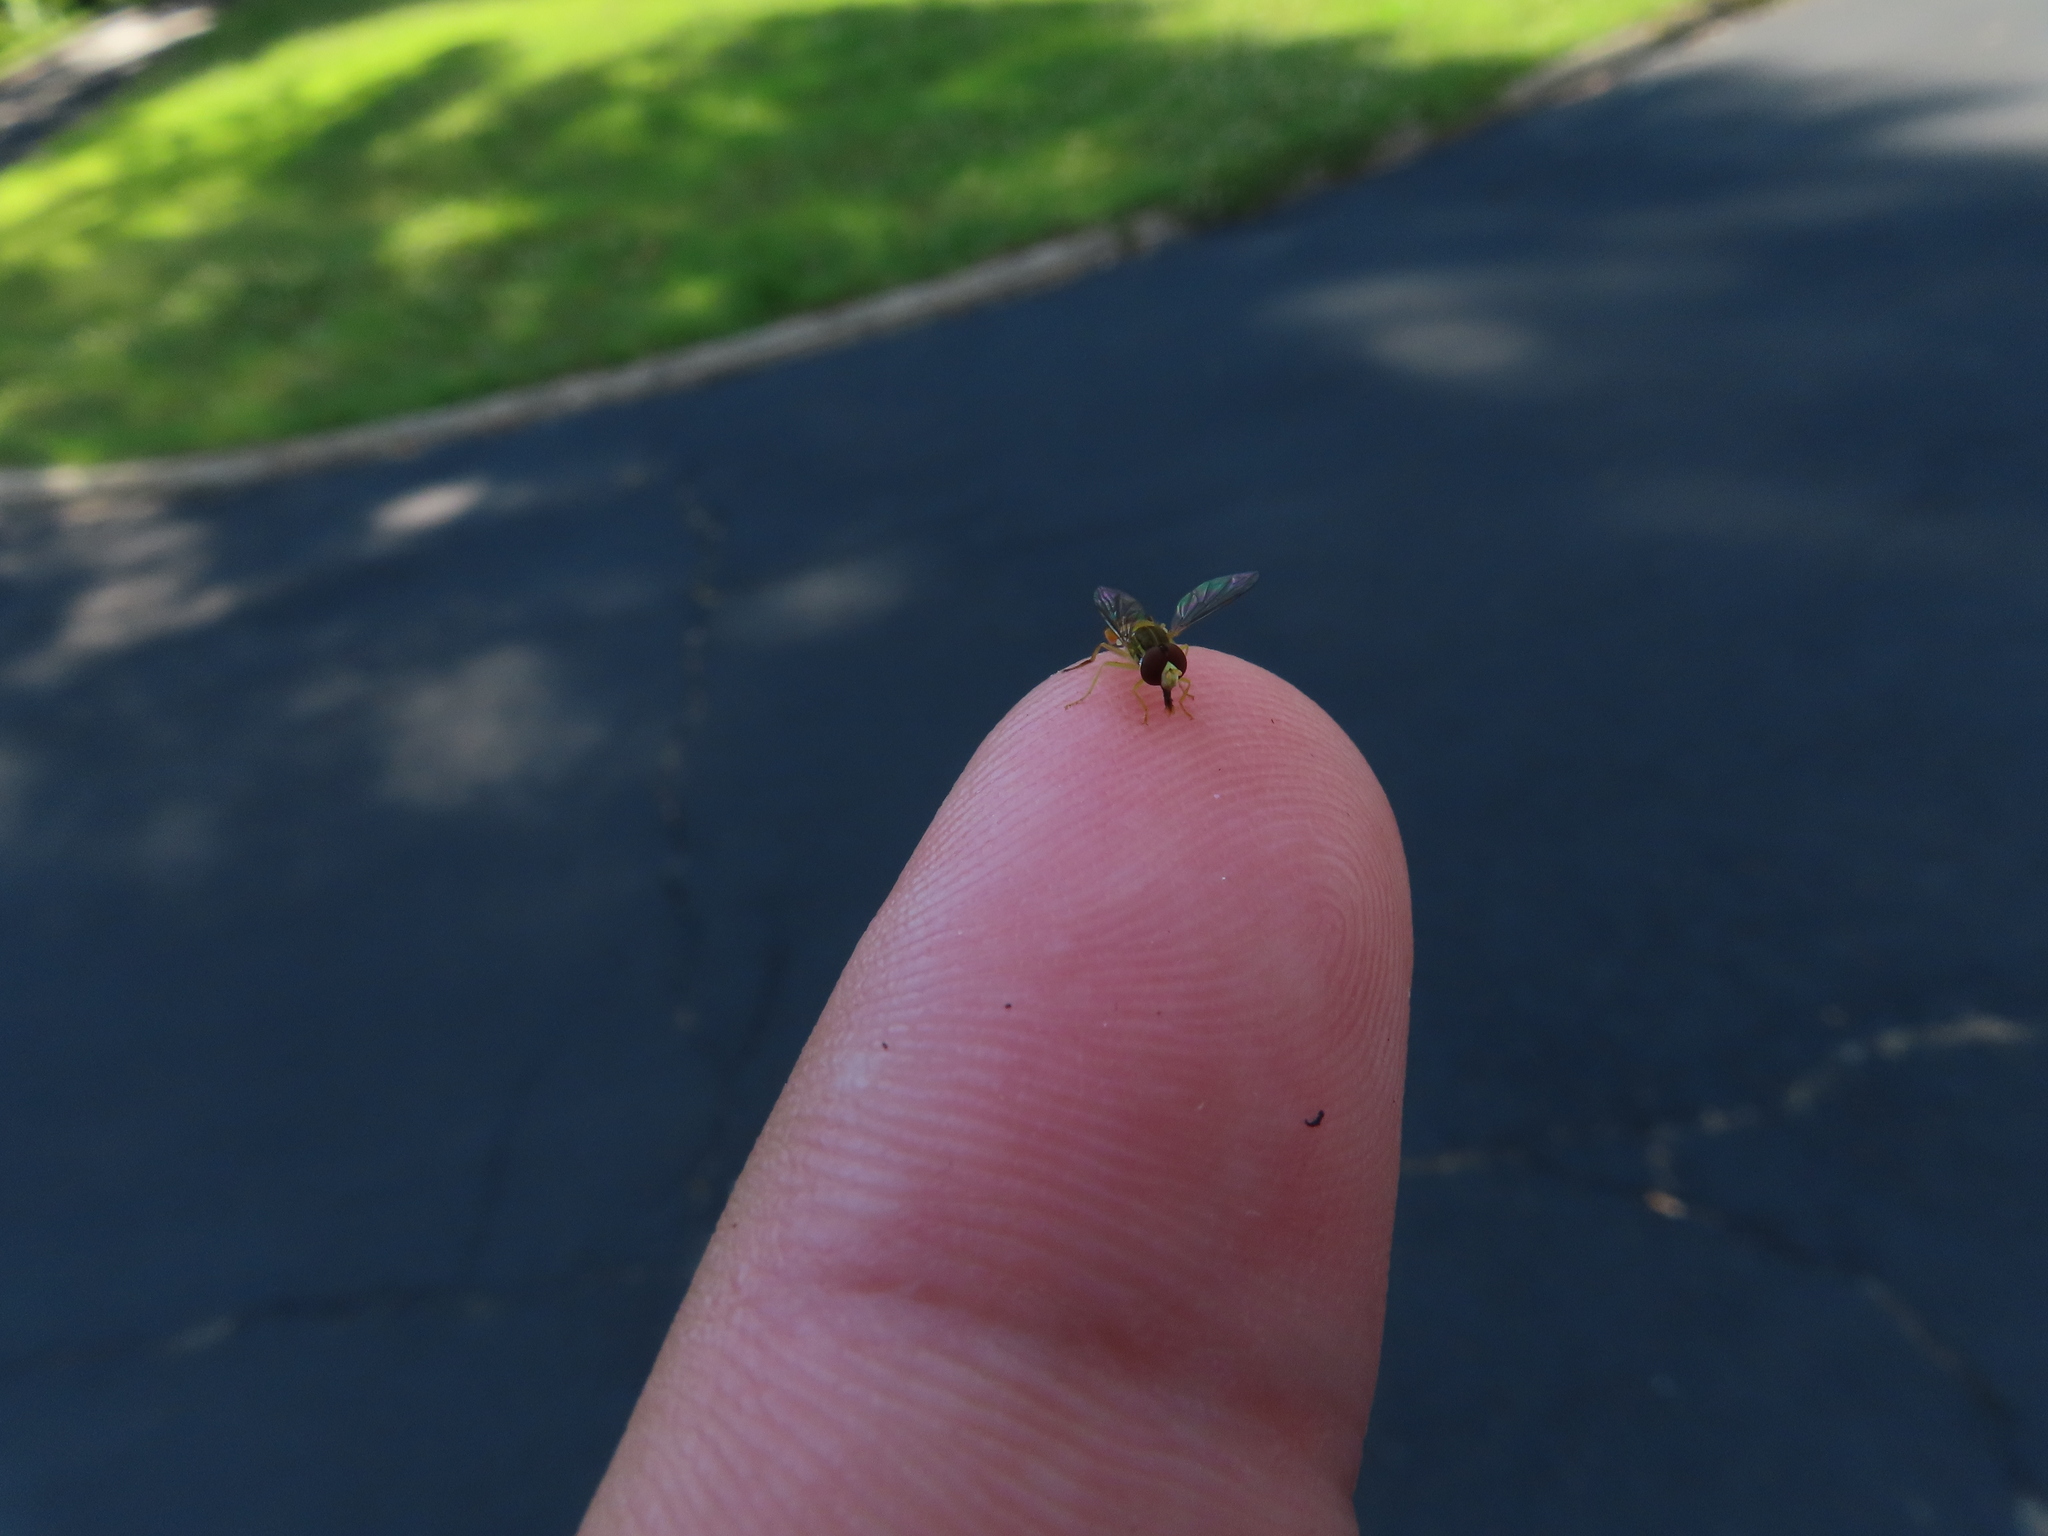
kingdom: Animalia
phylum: Arthropoda
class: Insecta
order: Diptera
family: Syrphidae
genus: Toxomerus
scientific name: Toxomerus marginatus
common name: Syrphid fly
